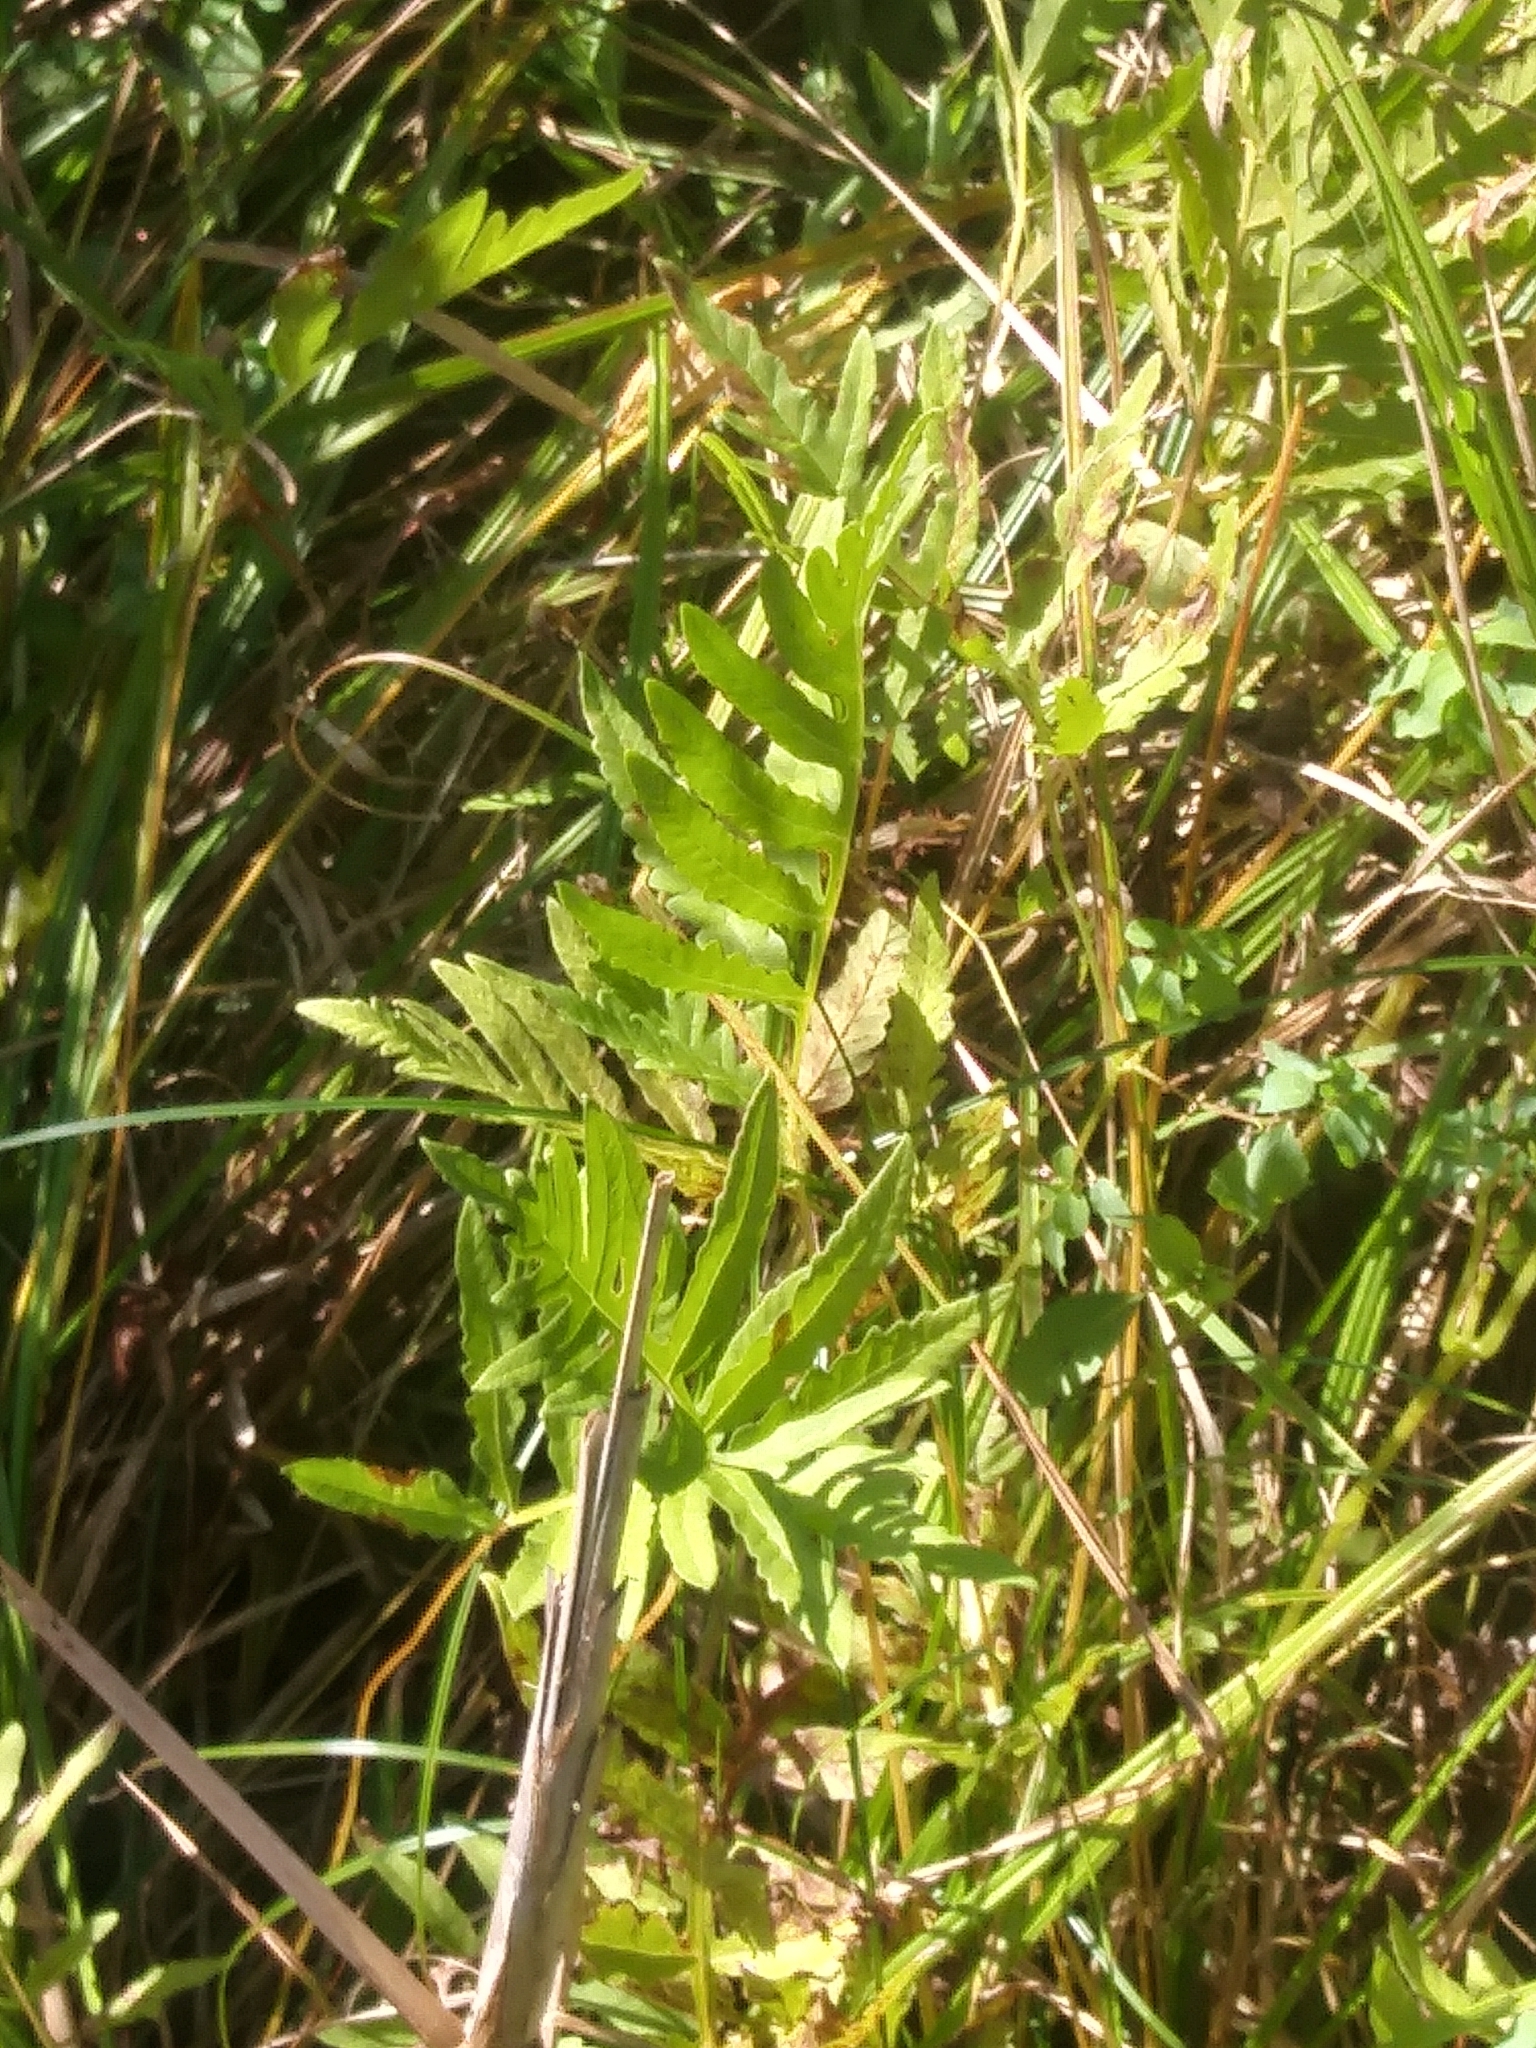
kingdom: Plantae
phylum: Tracheophyta
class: Polypodiopsida
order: Polypodiales
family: Onocleaceae
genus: Onoclea
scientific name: Onoclea sensibilis
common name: Sensitive fern
